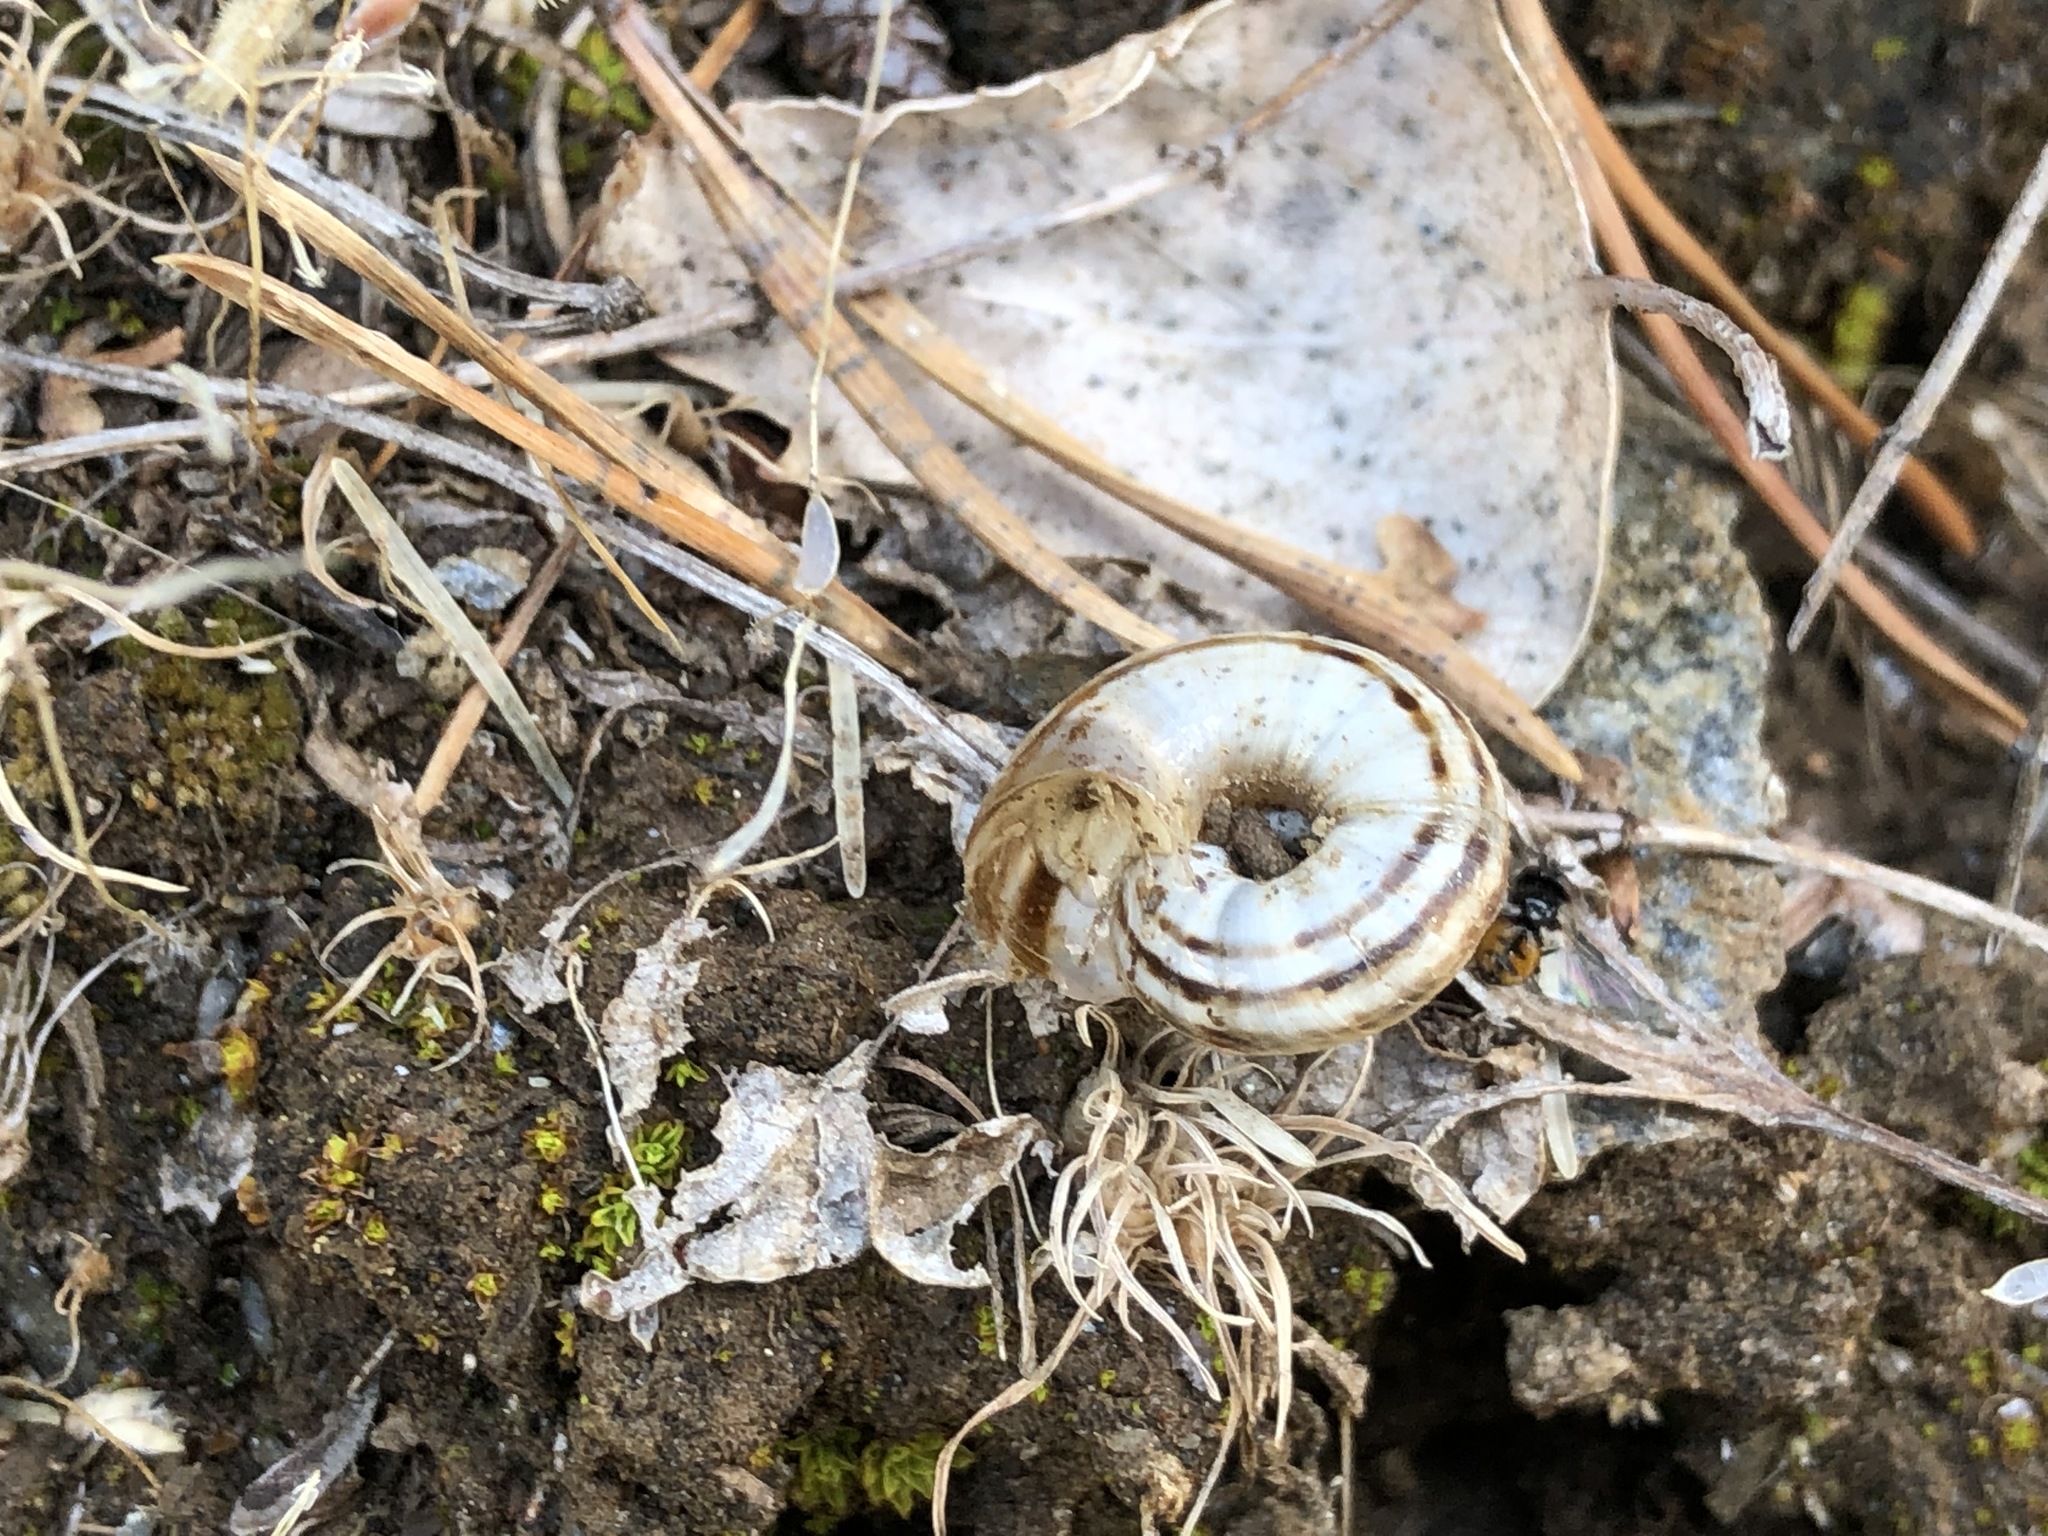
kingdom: Animalia
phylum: Mollusca
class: Gastropoda
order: Stylommatophora
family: Geomitridae
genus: Xerolenta
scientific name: Xerolenta obvia
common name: White heath snail
